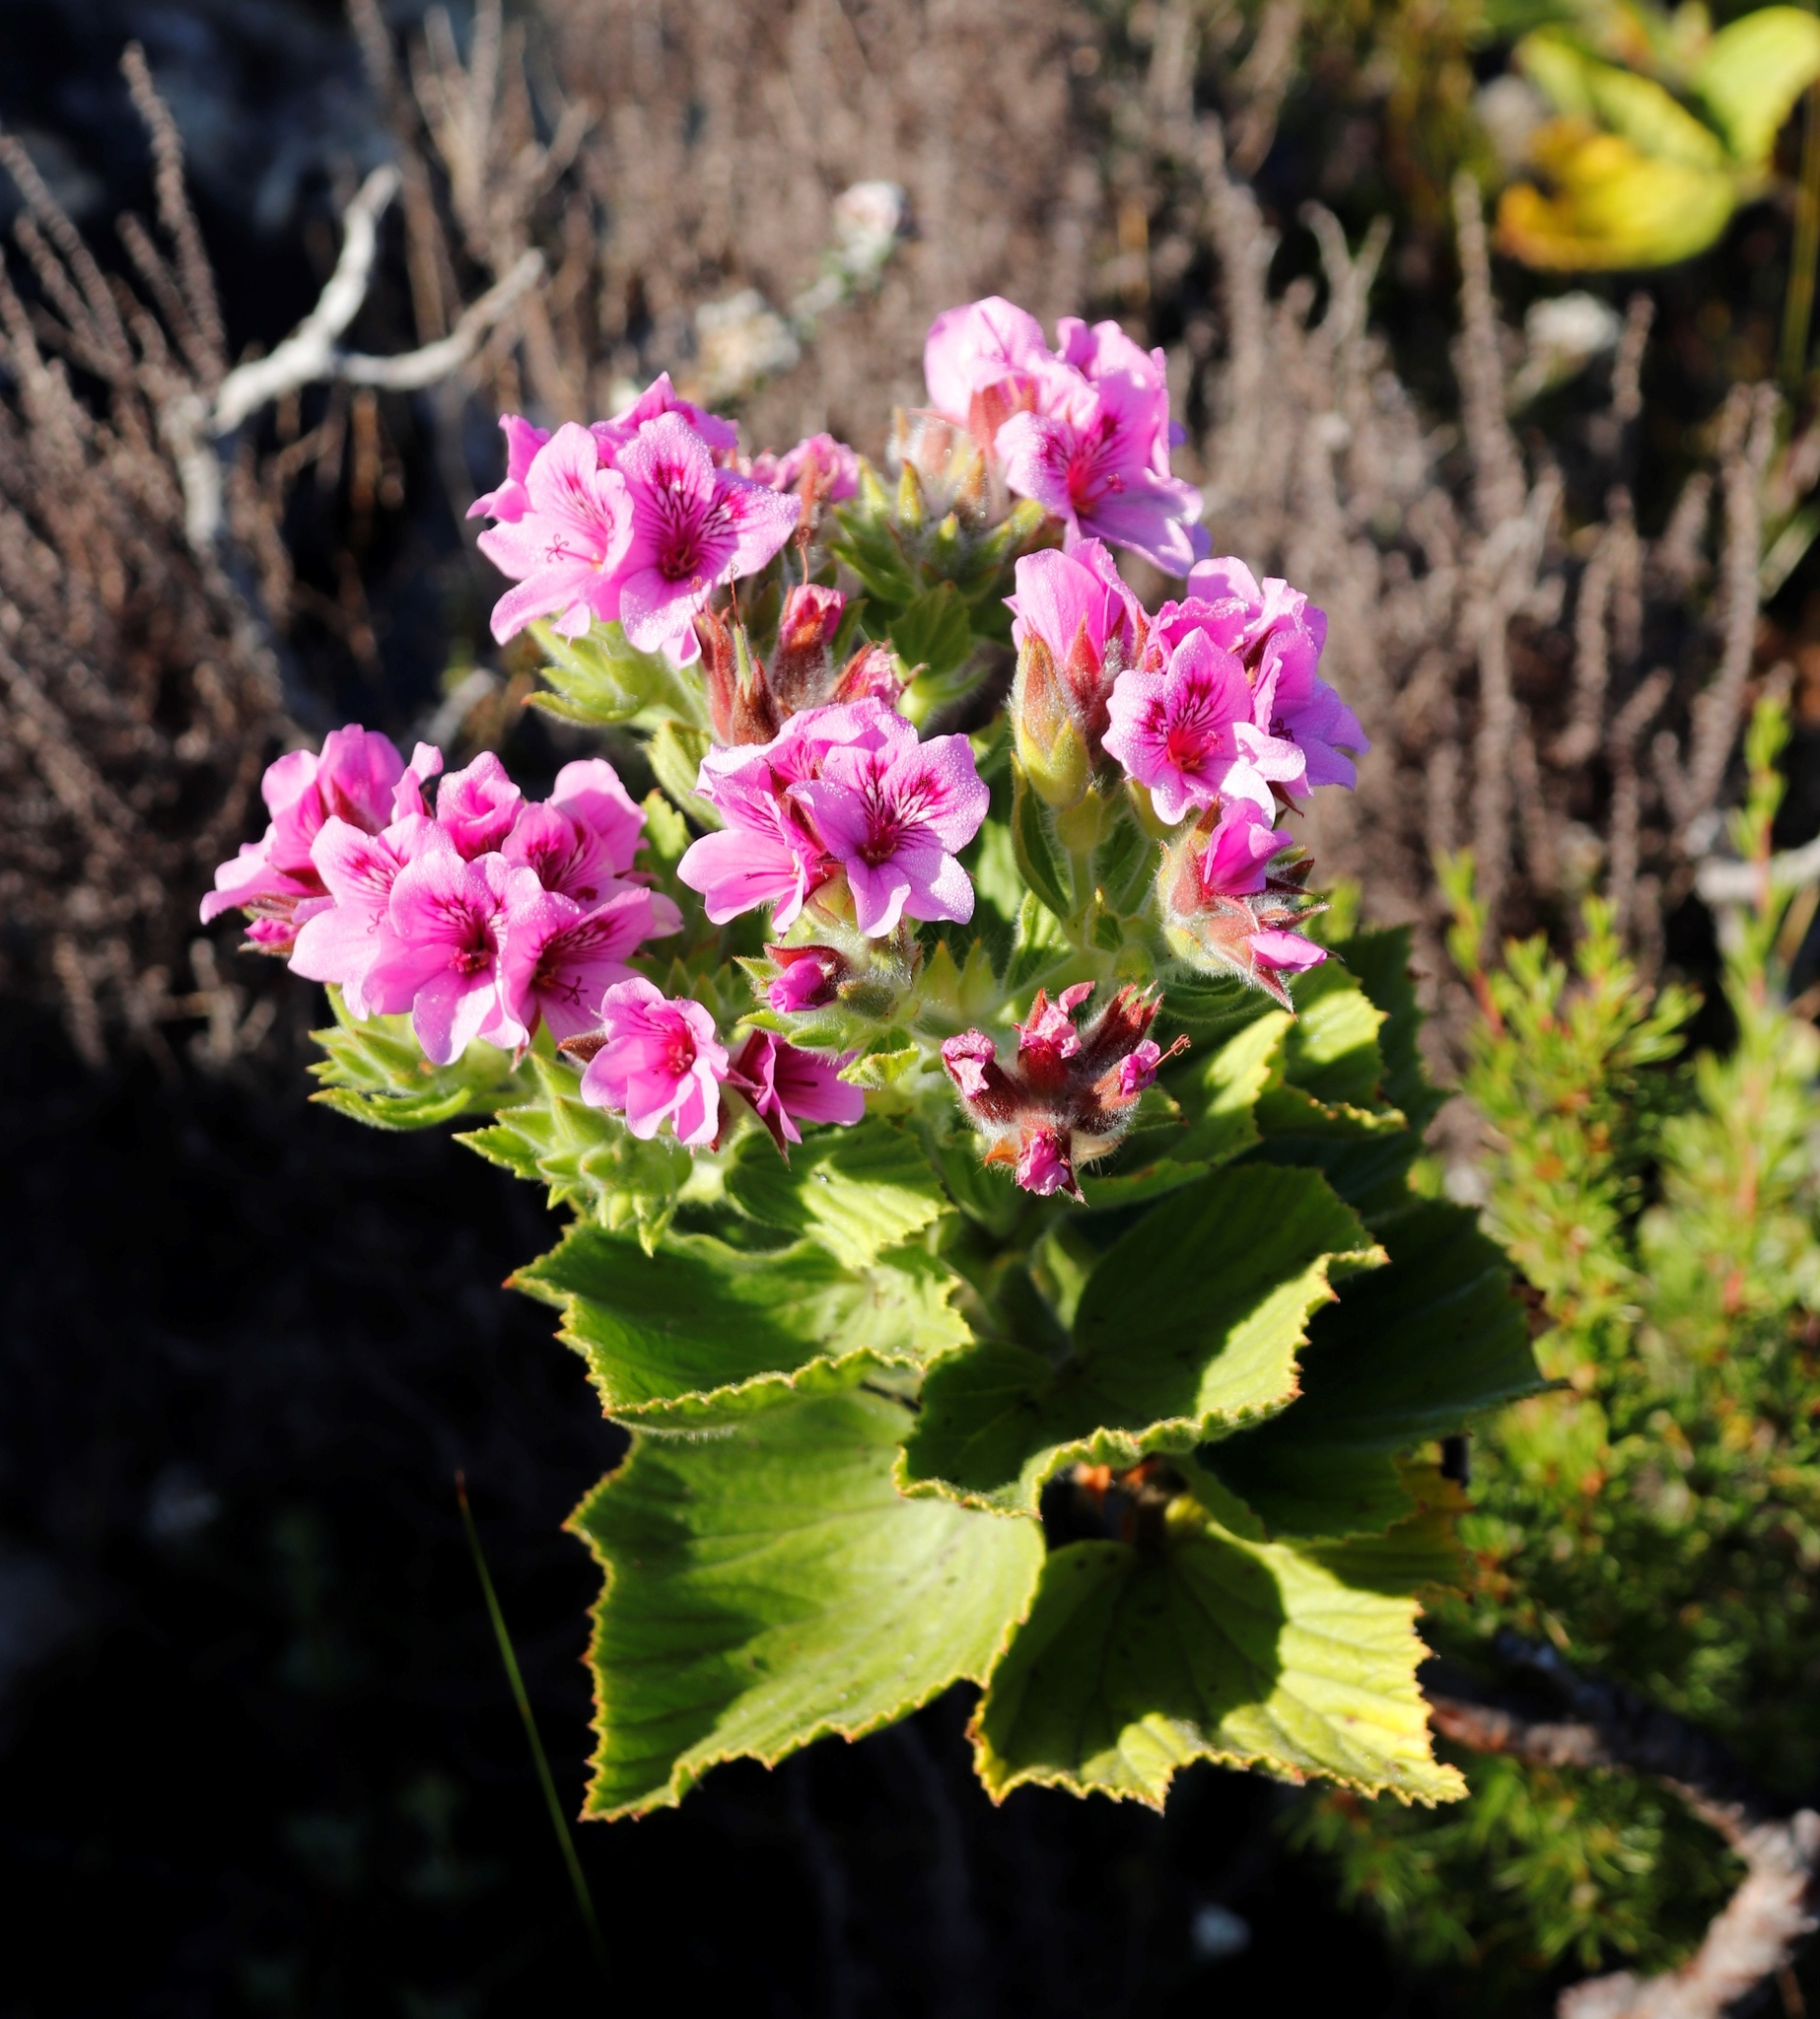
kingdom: Plantae
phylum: Tracheophyta
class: Magnoliopsida
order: Geraniales
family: Geraniaceae
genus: Pelargonium
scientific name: Pelargonium cucullatum
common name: Tree pelargonium
